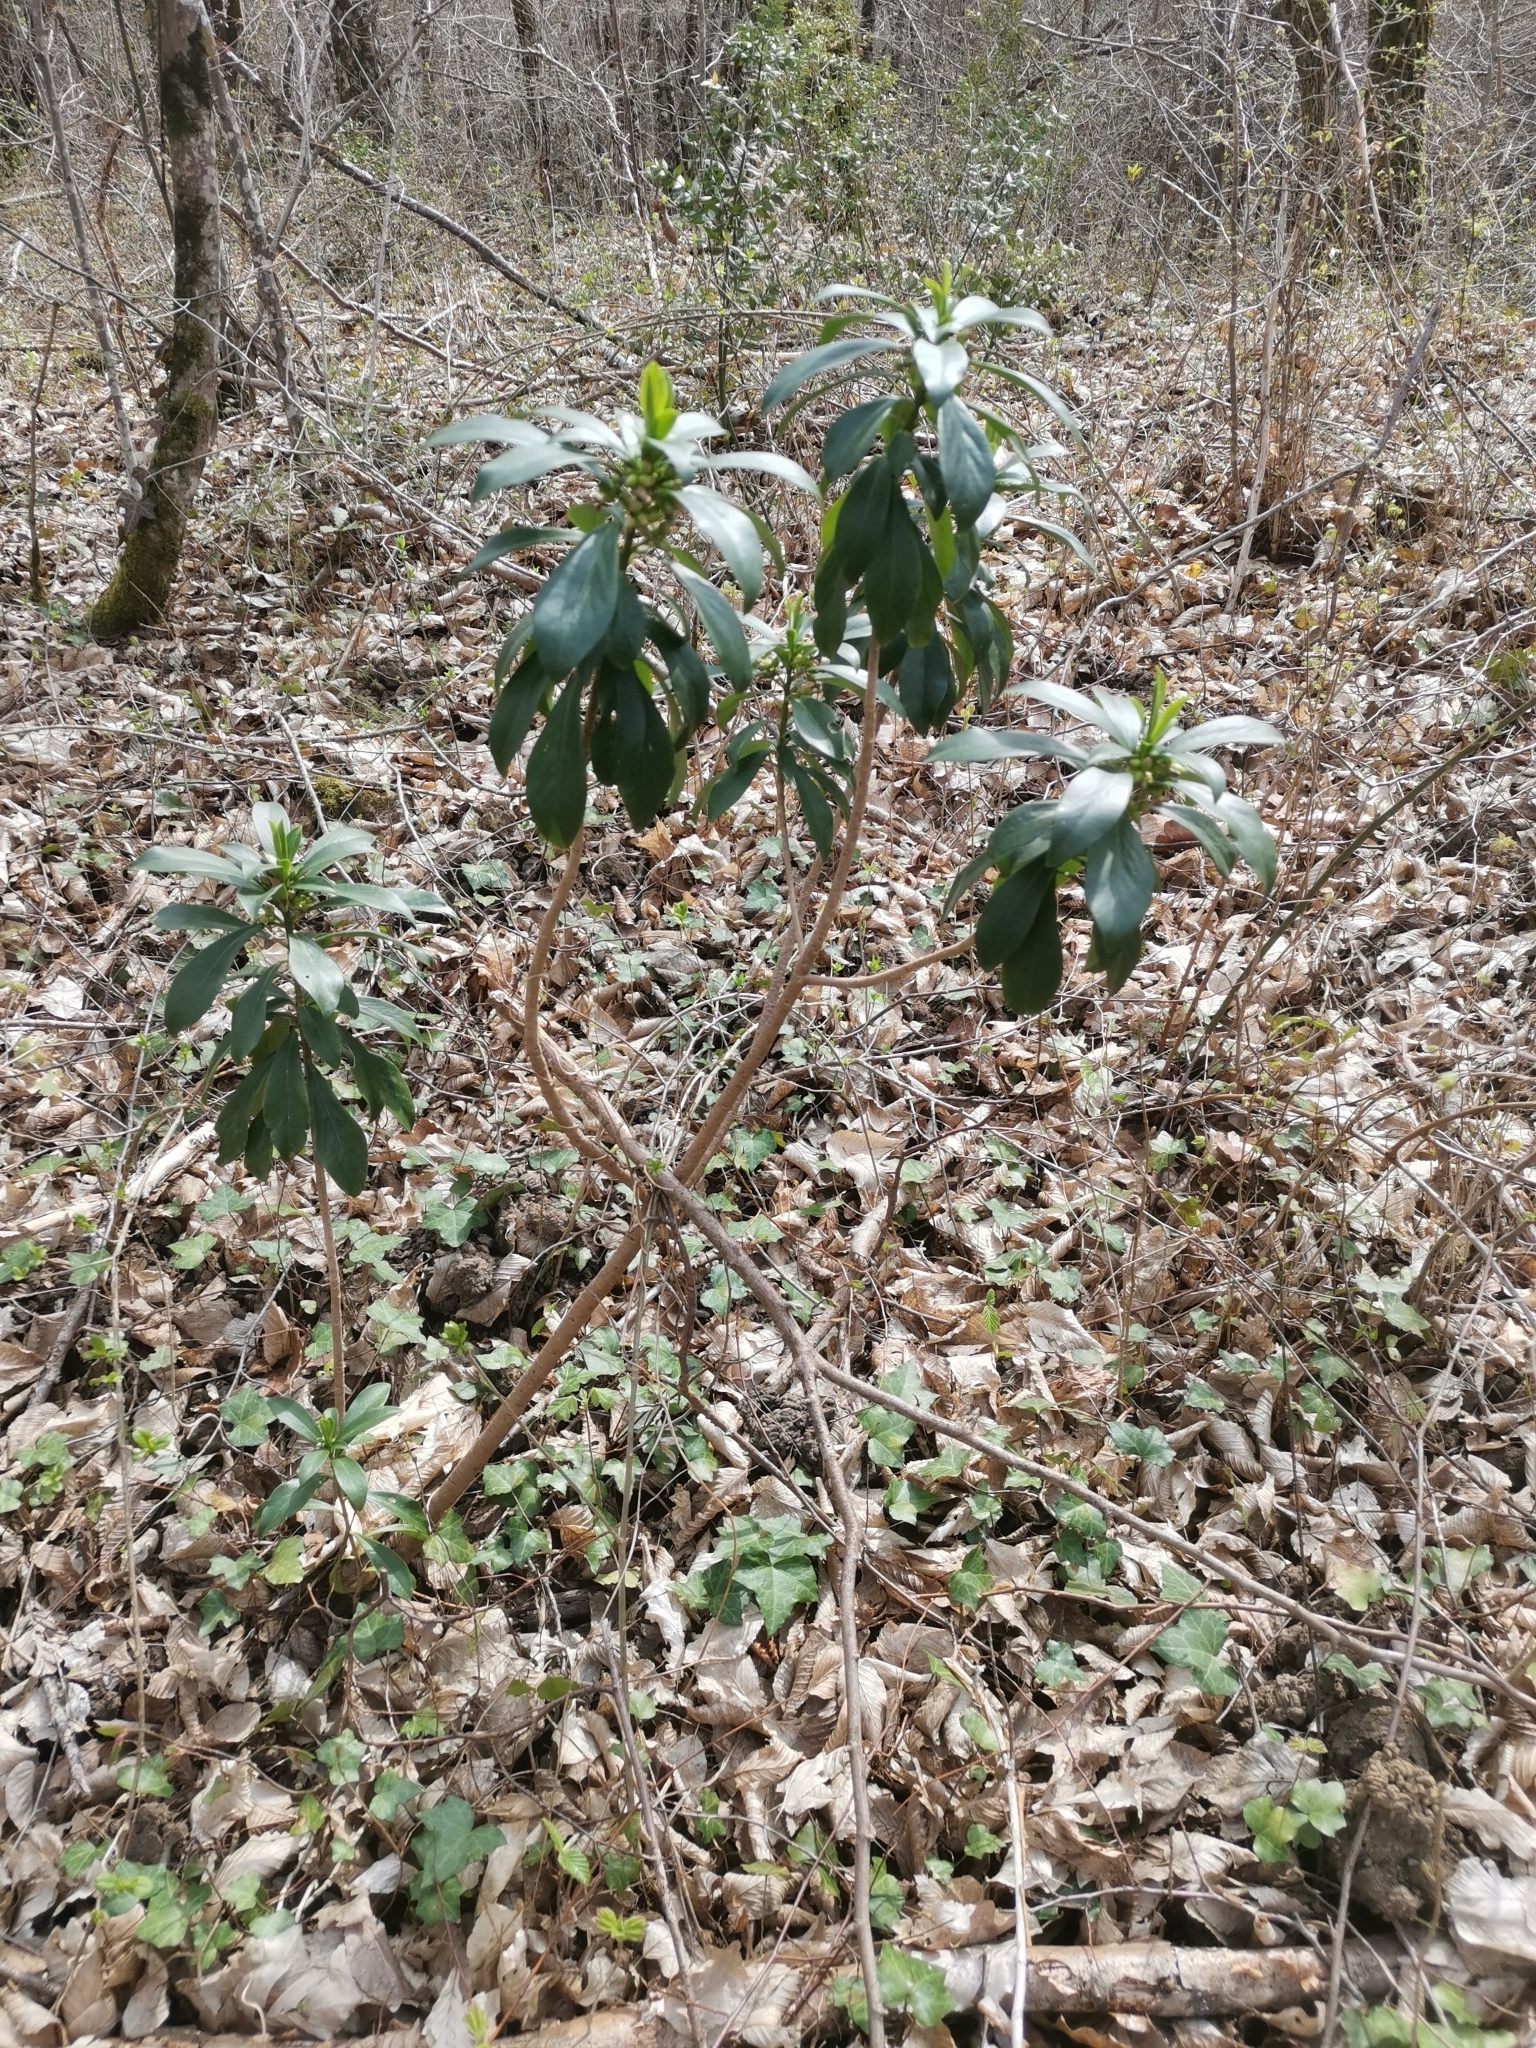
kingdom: Plantae
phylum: Tracheophyta
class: Magnoliopsida
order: Malvales
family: Thymelaeaceae
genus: Daphne
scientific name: Daphne laureola
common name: Spurge-laurel
